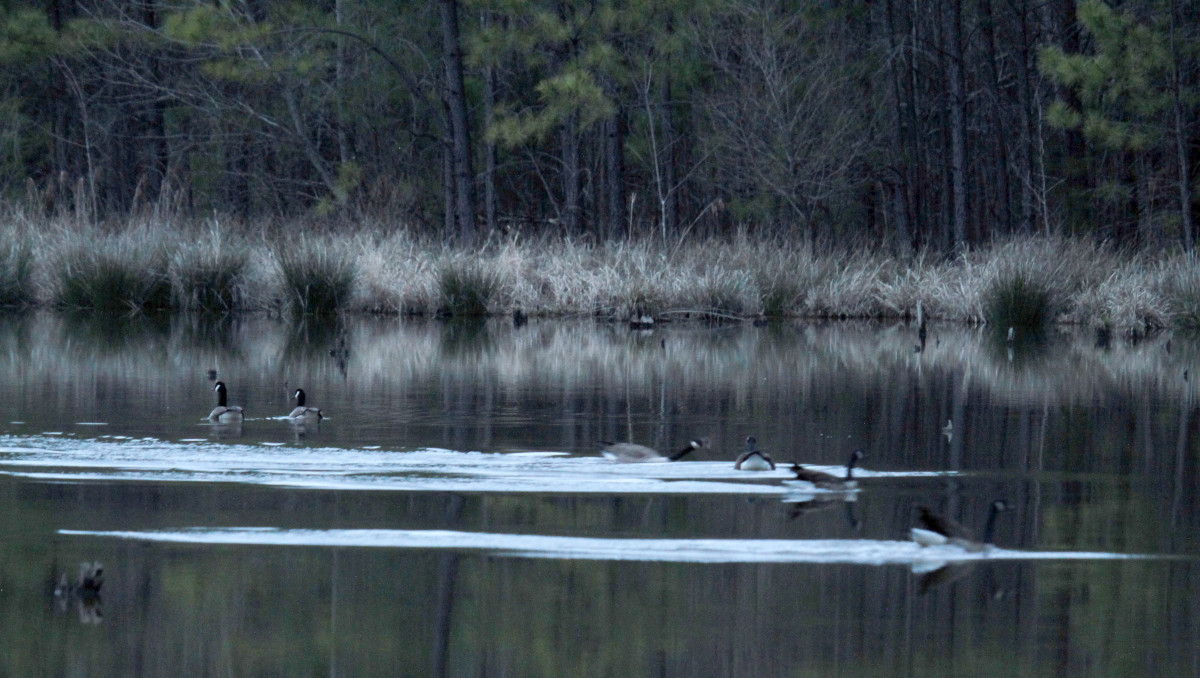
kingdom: Animalia
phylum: Chordata
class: Aves
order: Anseriformes
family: Anatidae
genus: Branta
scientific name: Branta canadensis
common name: Canada goose
